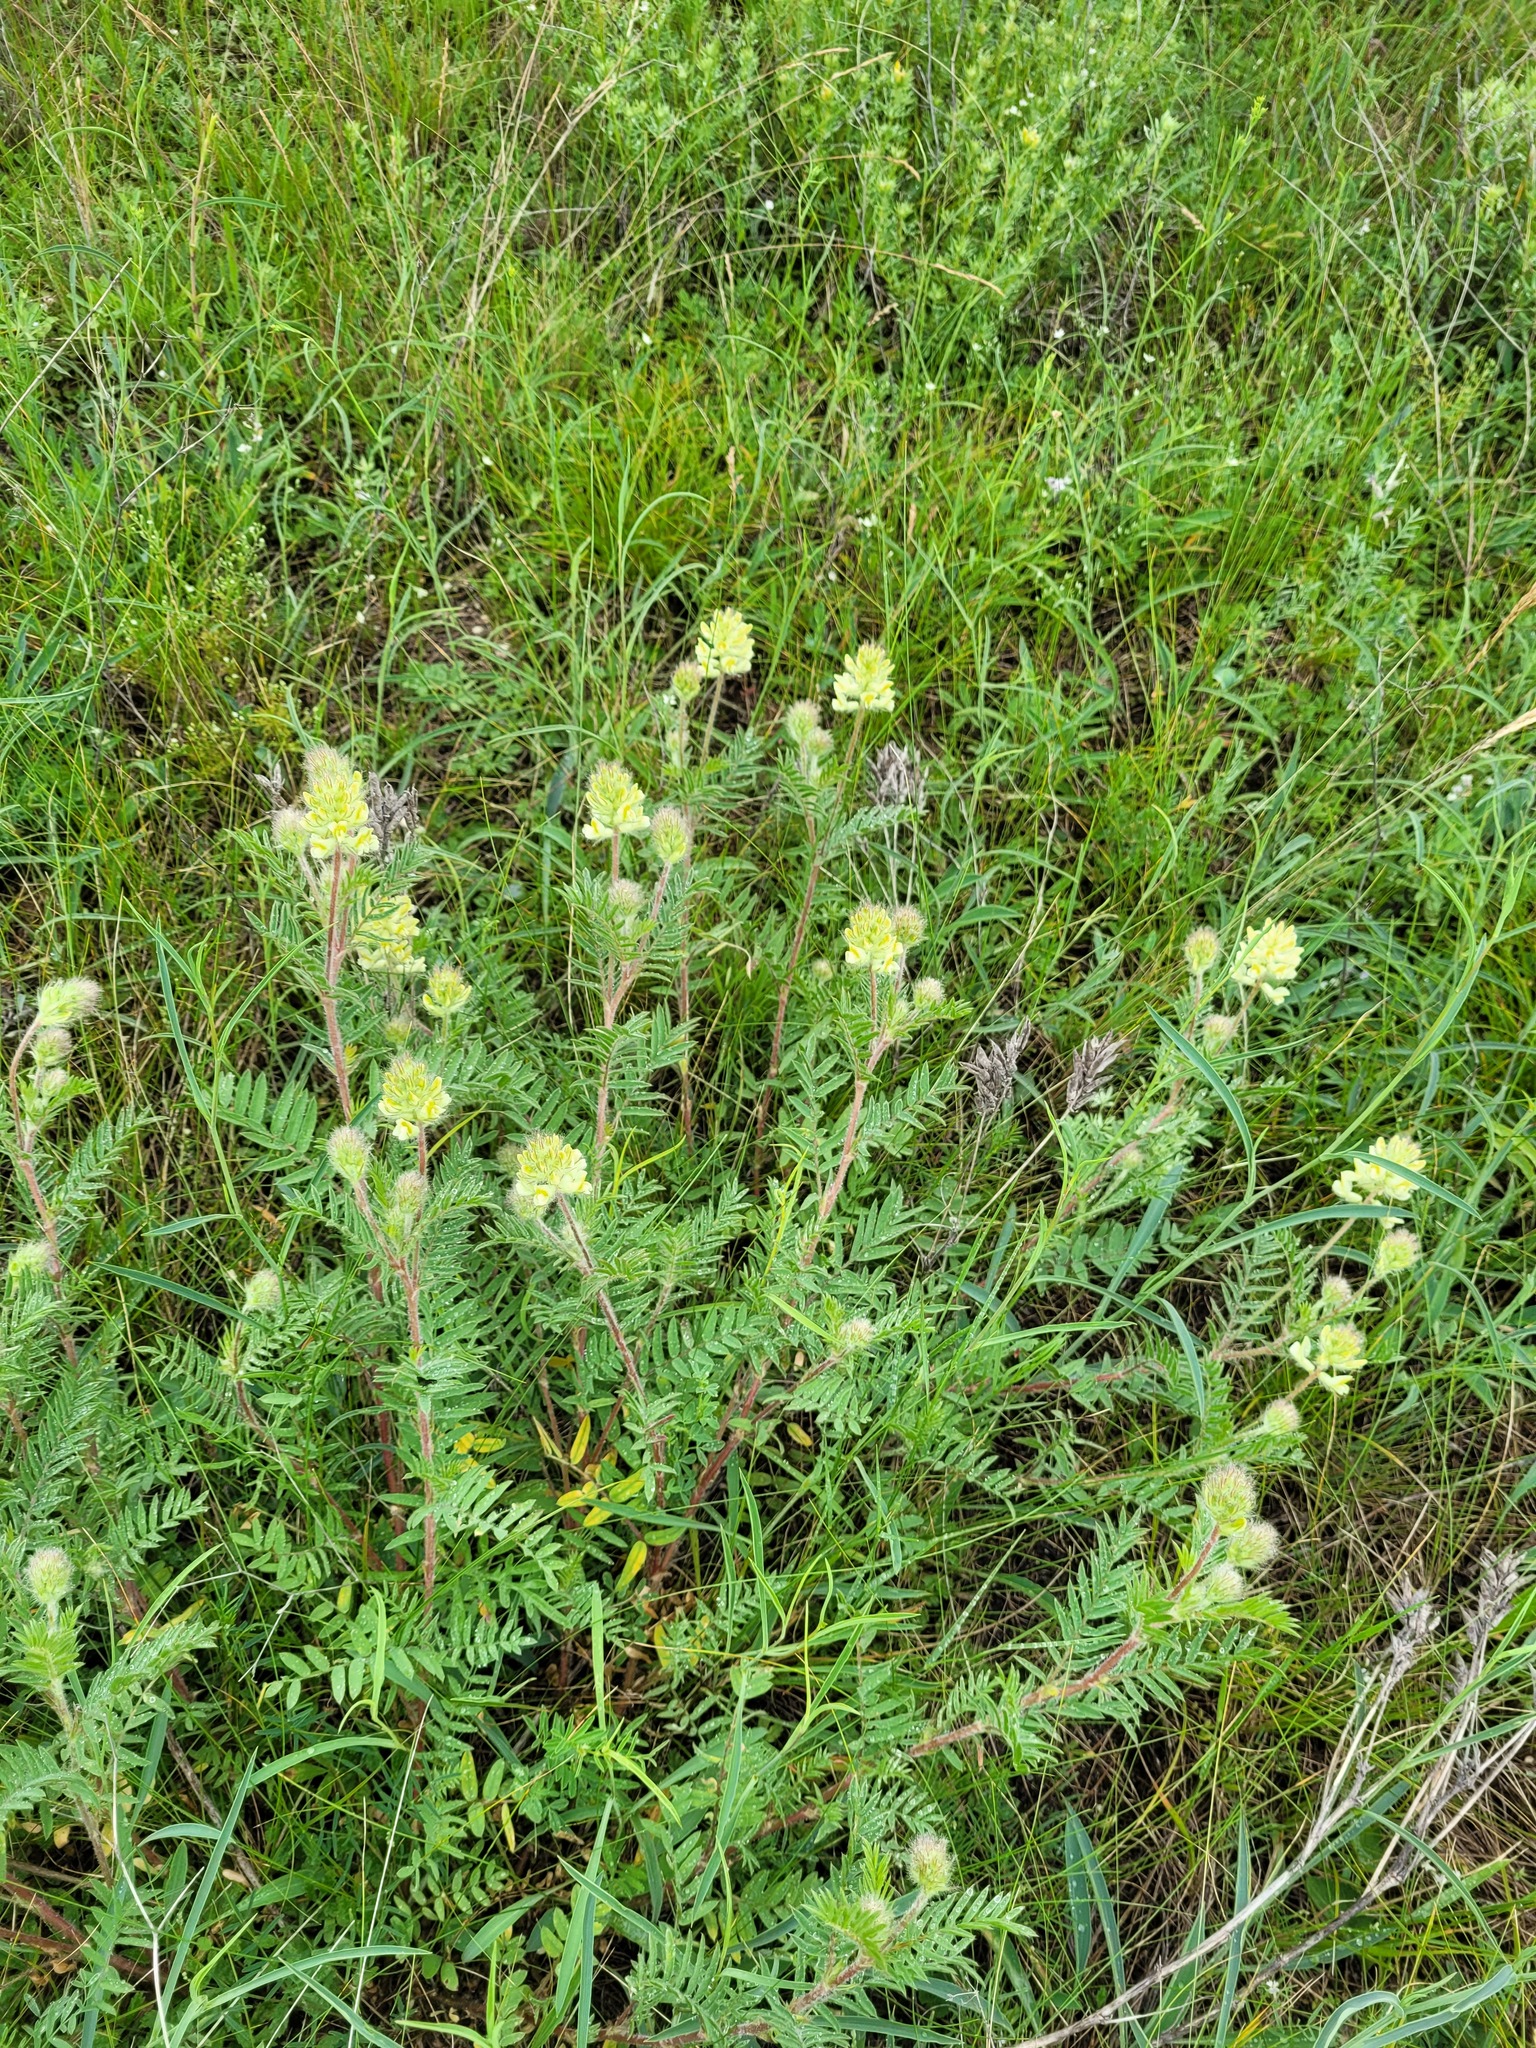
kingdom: Plantae
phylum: Tracheophyta
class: Magnoliopsida
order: Fabales
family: Fabaceae
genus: Oxytropis
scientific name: Oxytropis pilosa
